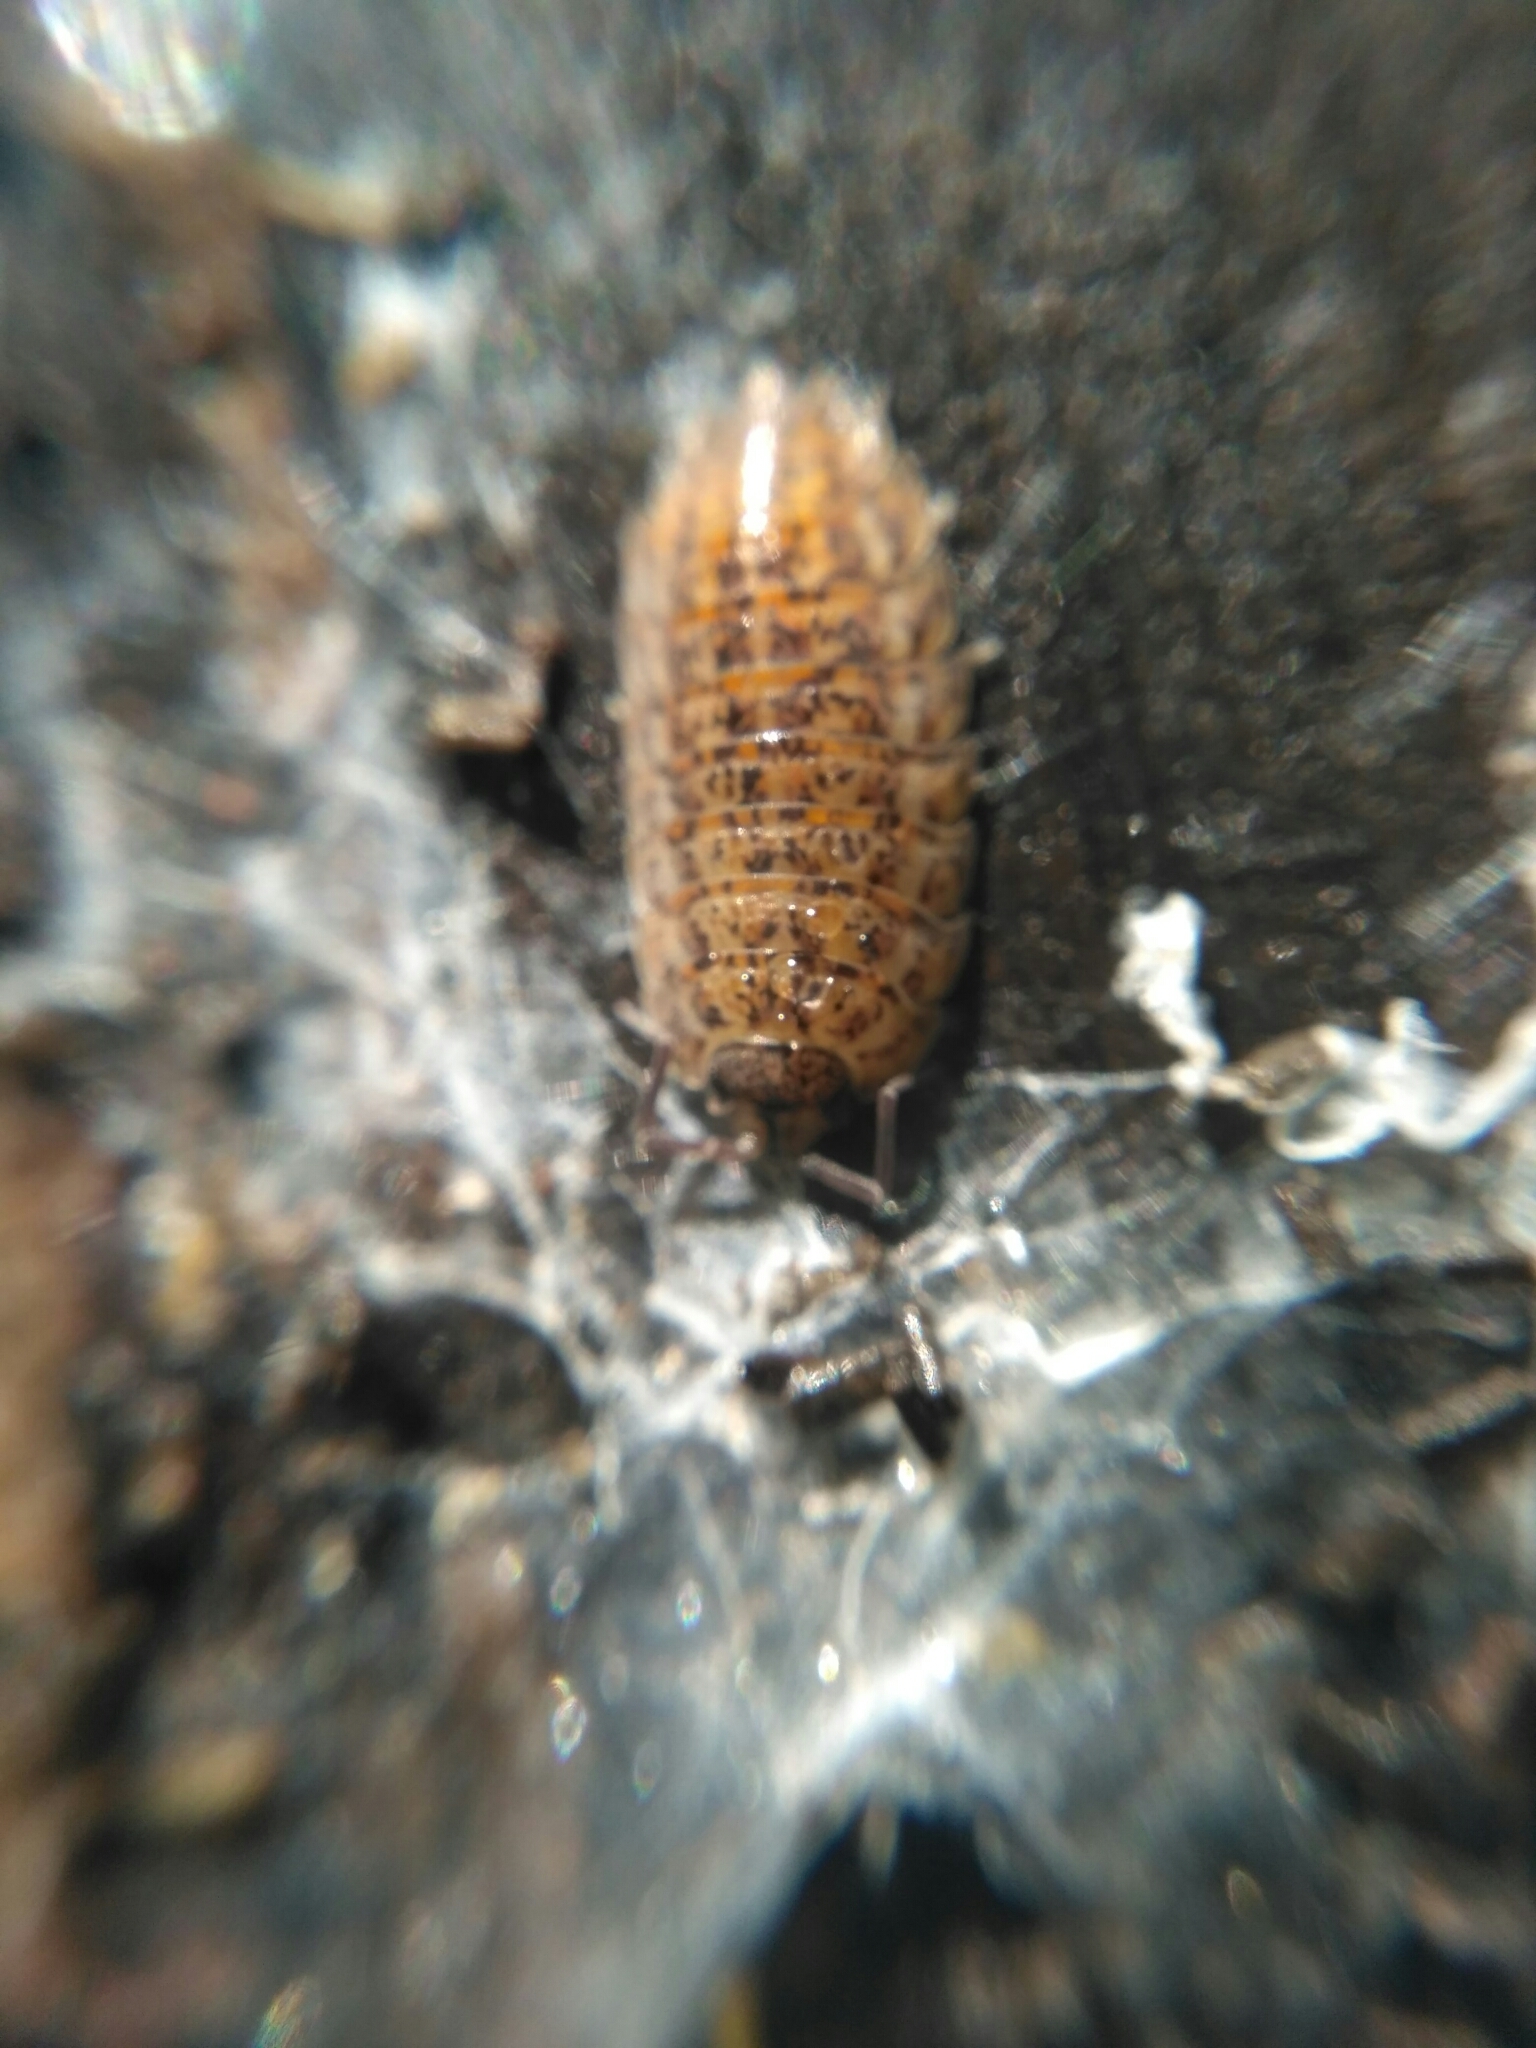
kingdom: Animalia
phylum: Arthropoda
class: Malacostraca
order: Isopoda
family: Trachelipodidae
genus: Trachelipus
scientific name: Trachelipus rathkii
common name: Isopod
